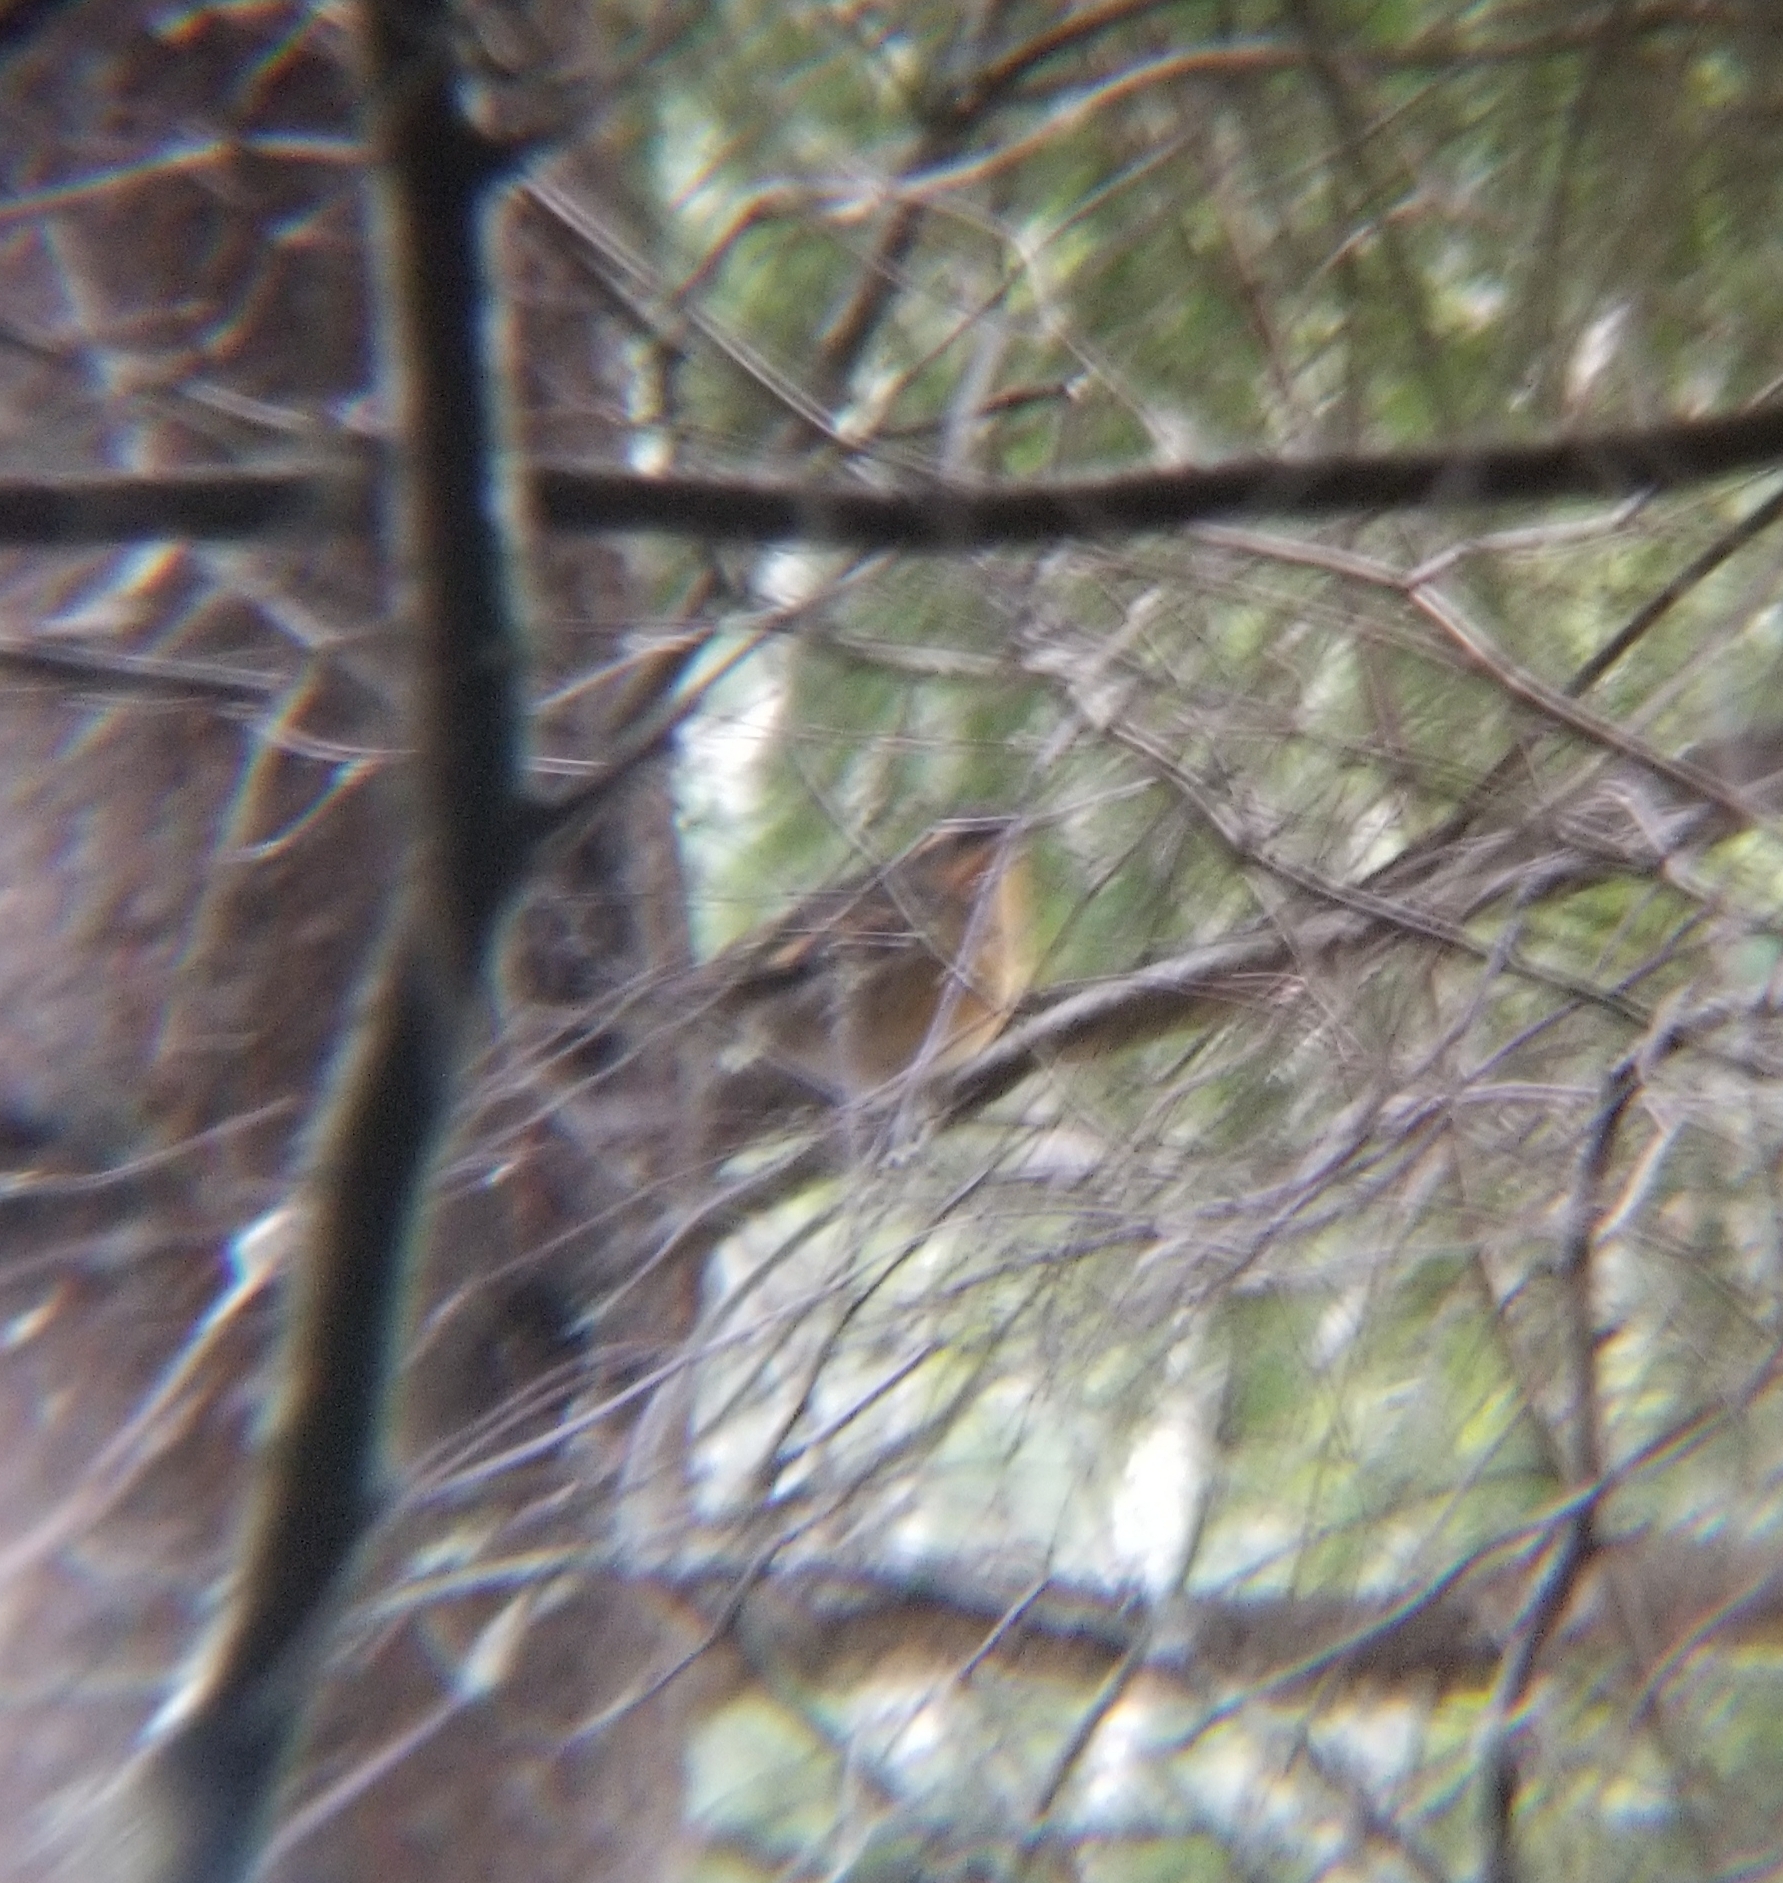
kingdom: Animalia
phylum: Chordata
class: Aves
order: Passeriformes
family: Turdidae
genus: Ixoreus
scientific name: Ixoreus naevius
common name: Varied thrush
